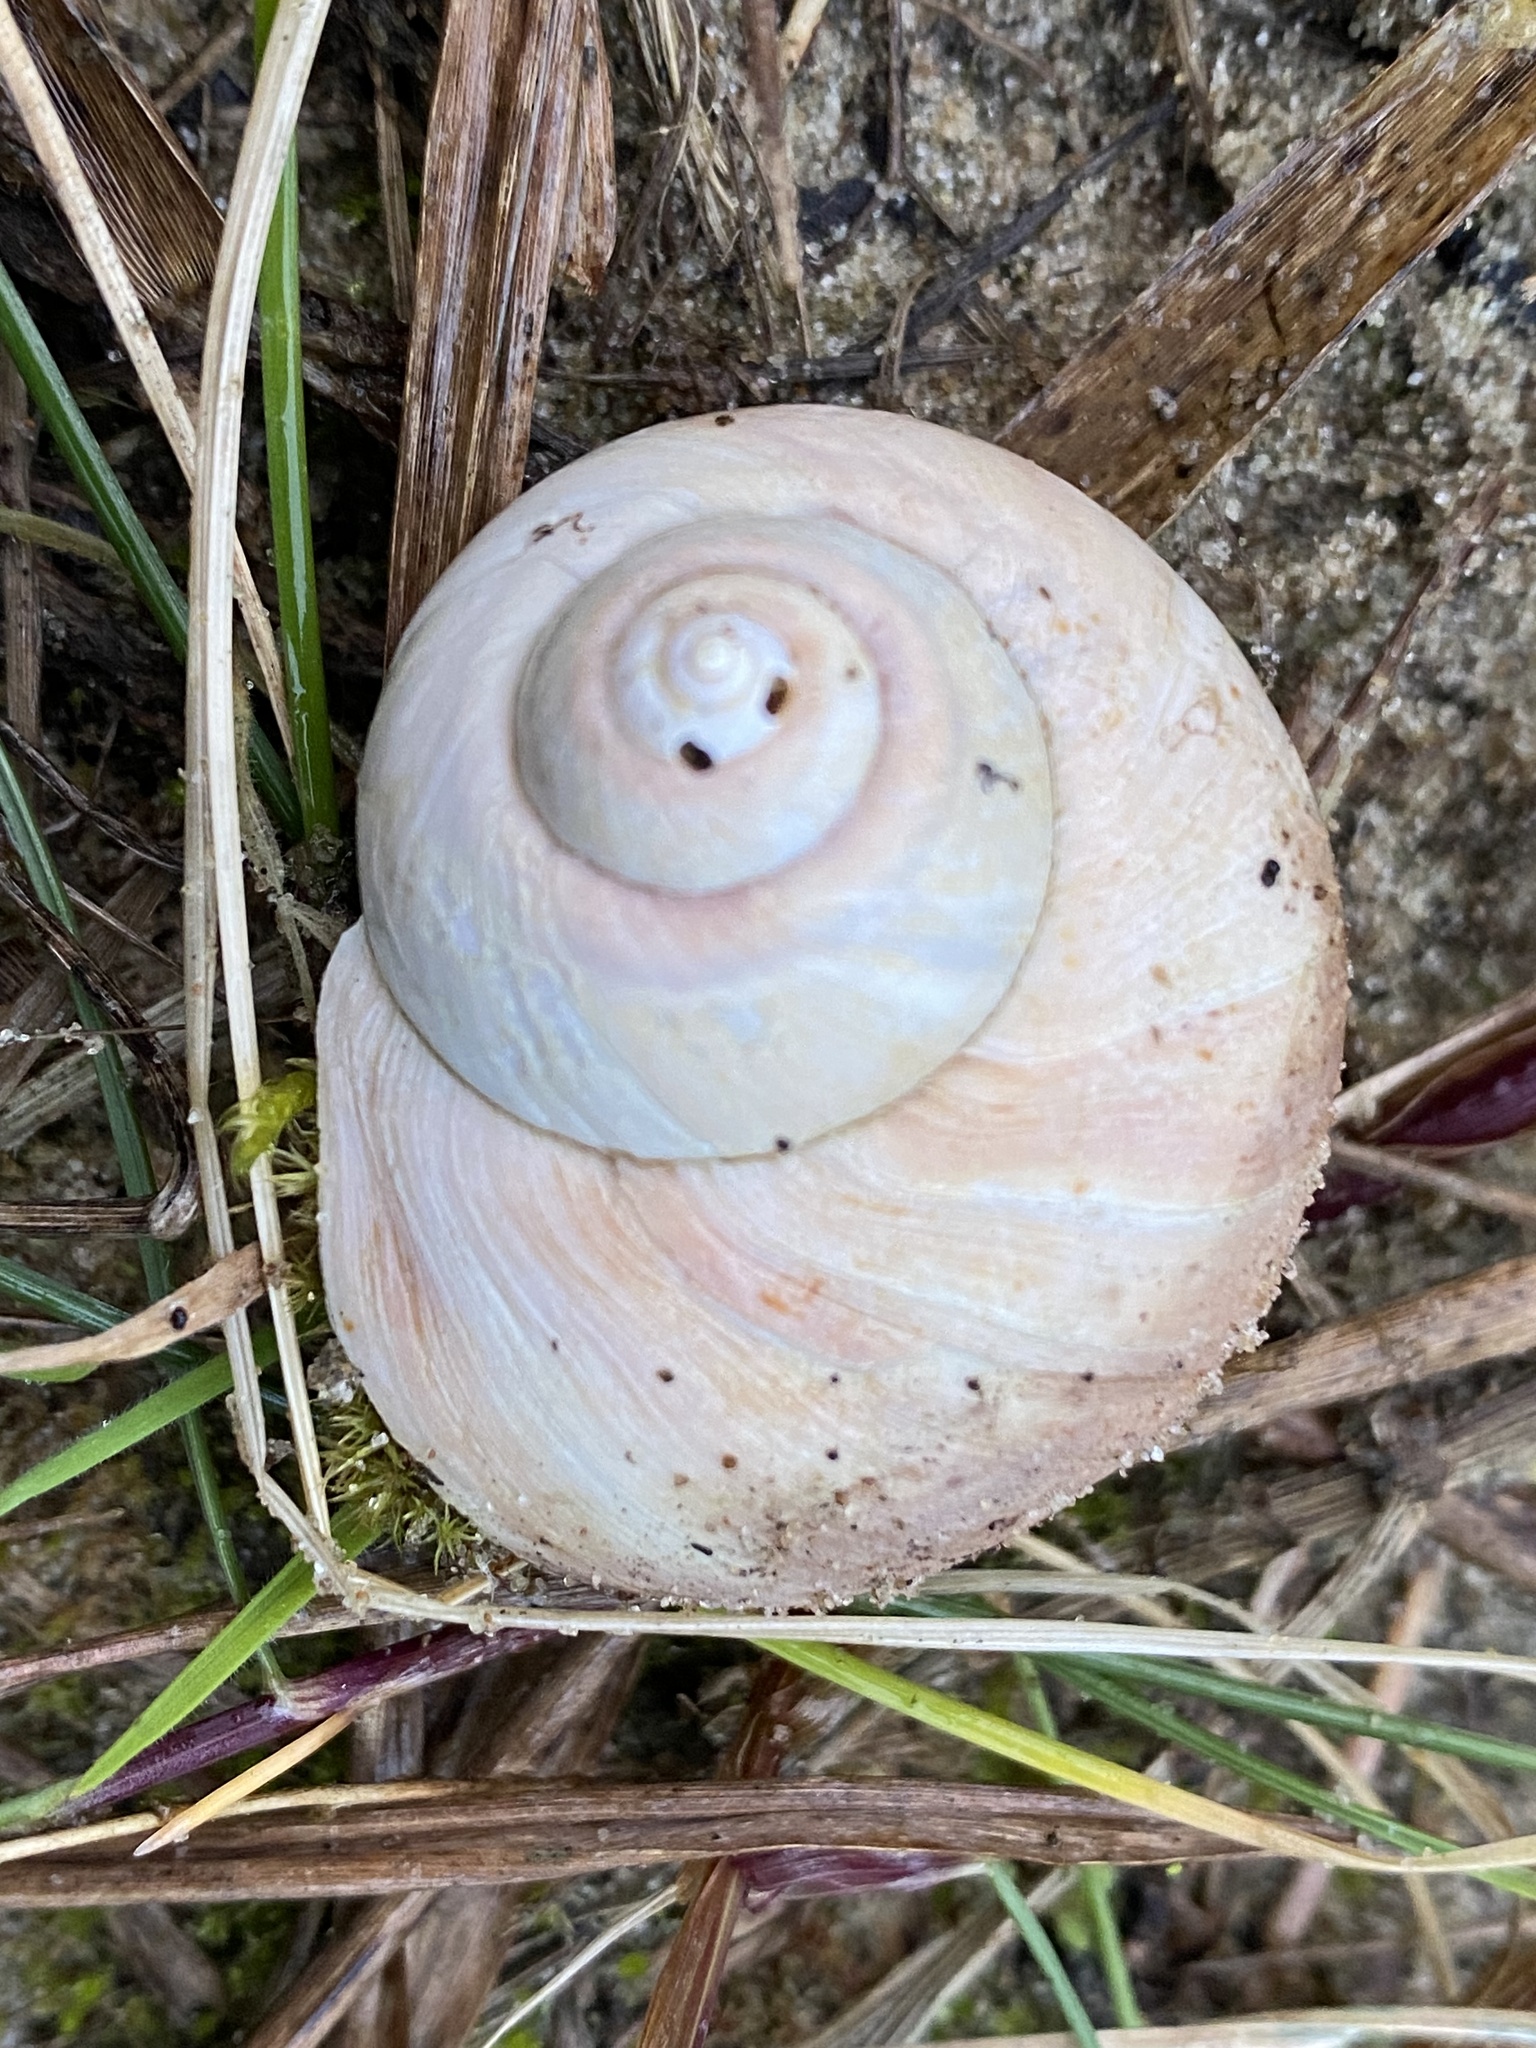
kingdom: Animalia
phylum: Mollusca
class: Gastropoda
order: Littorinimorpha
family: Naticidae
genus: Euspira
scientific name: Euspira catena
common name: Necklace shell
